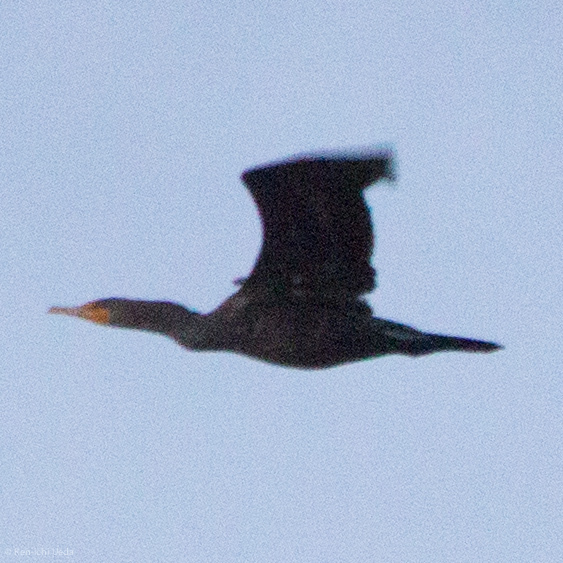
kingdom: Animalia
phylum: Chordata
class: Aves
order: Suliformes
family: Phalacrocoracidae
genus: Phalacrocorax
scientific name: Phalacrocorax auritus
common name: Double-crested cormorant
